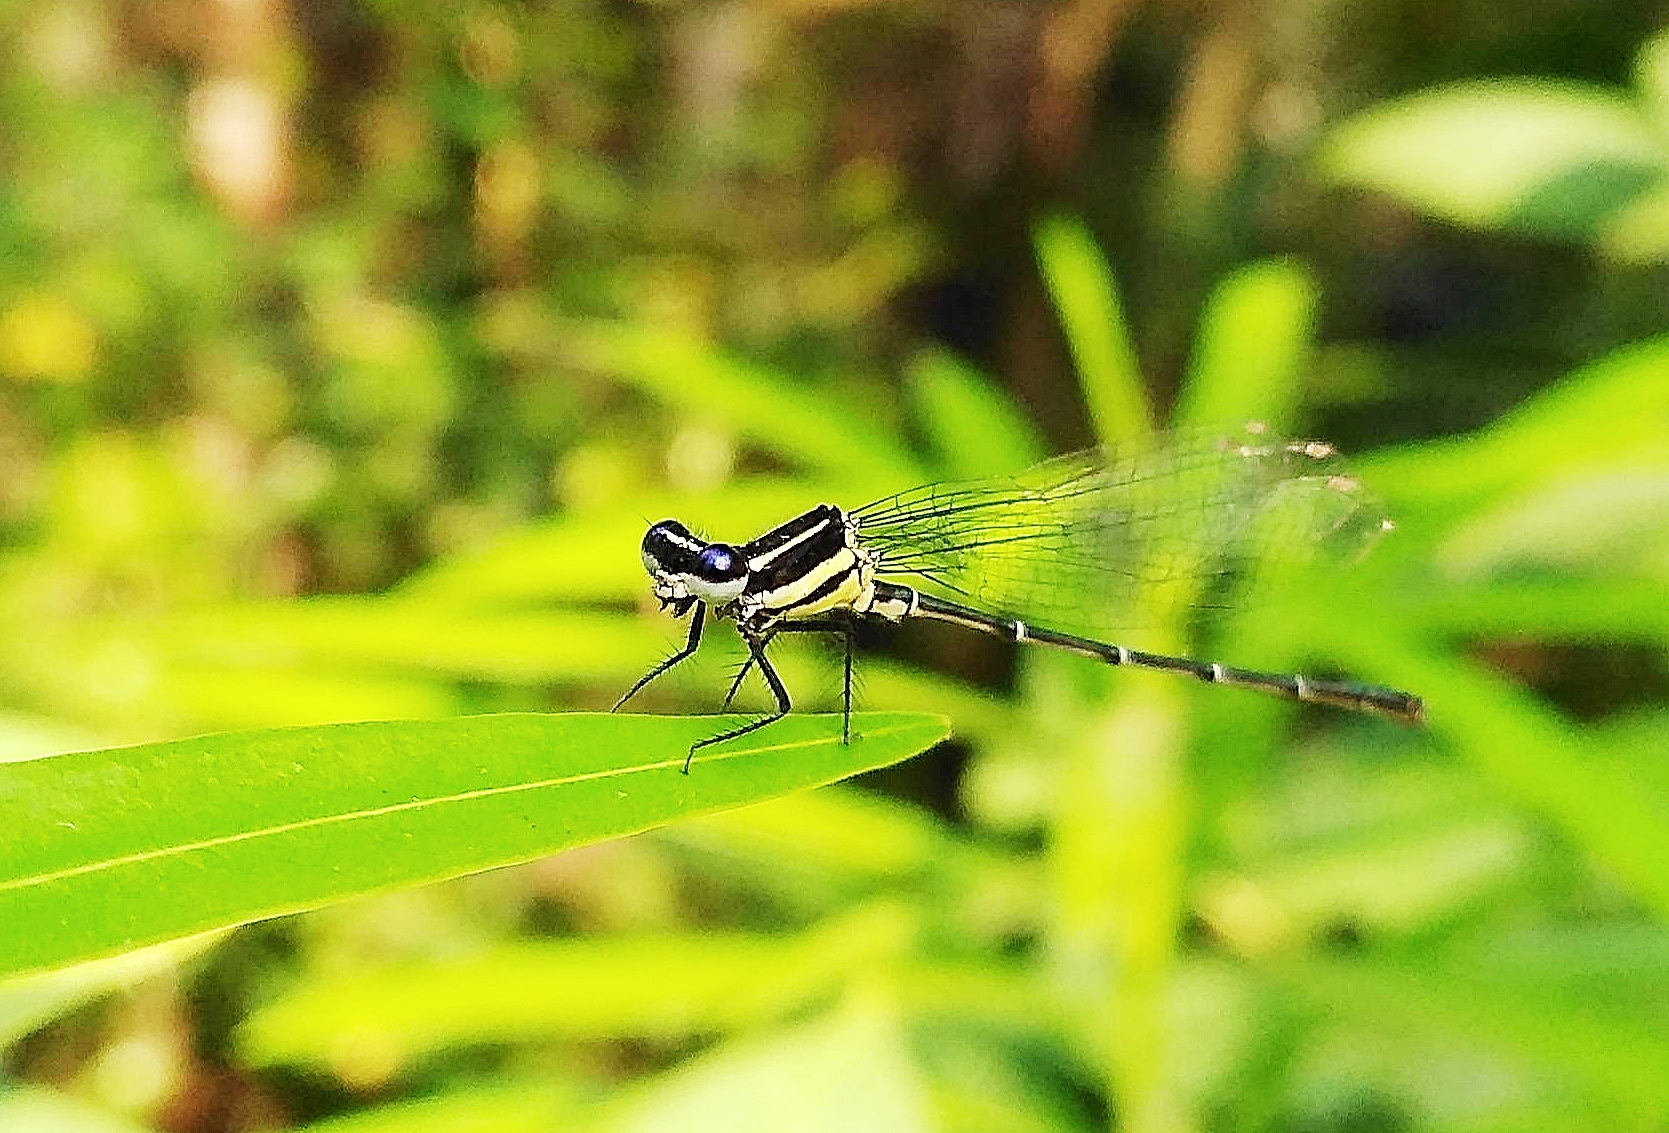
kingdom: Animalia
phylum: Arthropoda
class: Insecta
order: Odonata
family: Platycnemididae
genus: Onychargia
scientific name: Onychargia atrocyana
